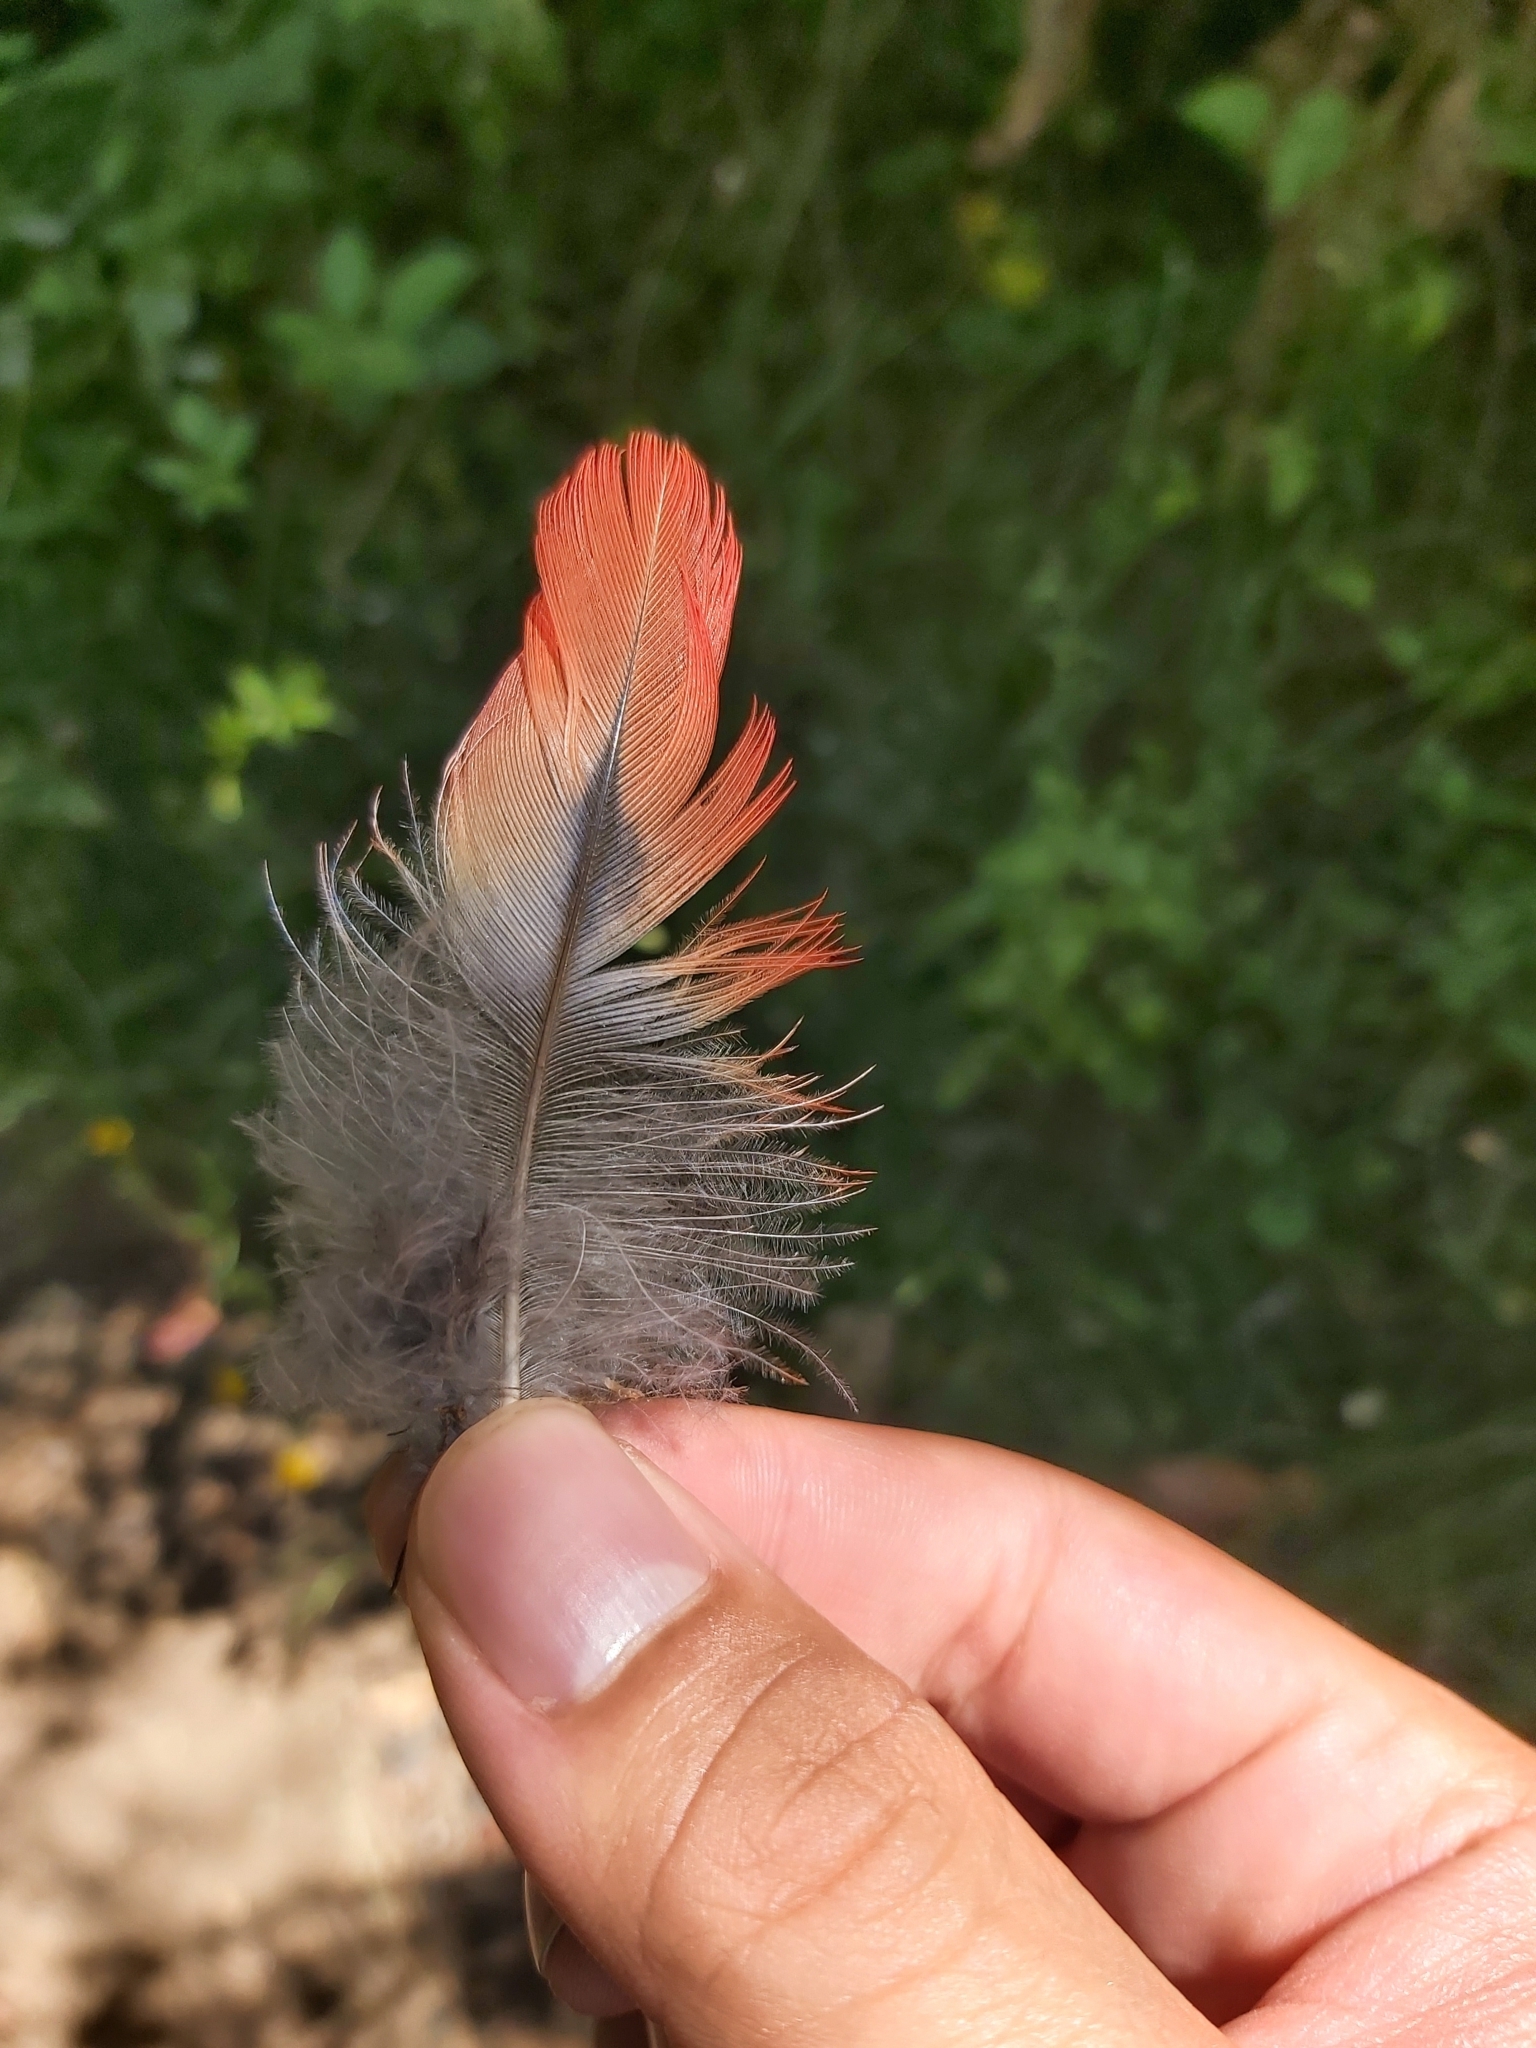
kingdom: Animalia
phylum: Chordata
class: Aves
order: Psittaciformes
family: Psittacidae
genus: Platycercus
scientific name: Platycercus elegans
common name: Crimson rosella
